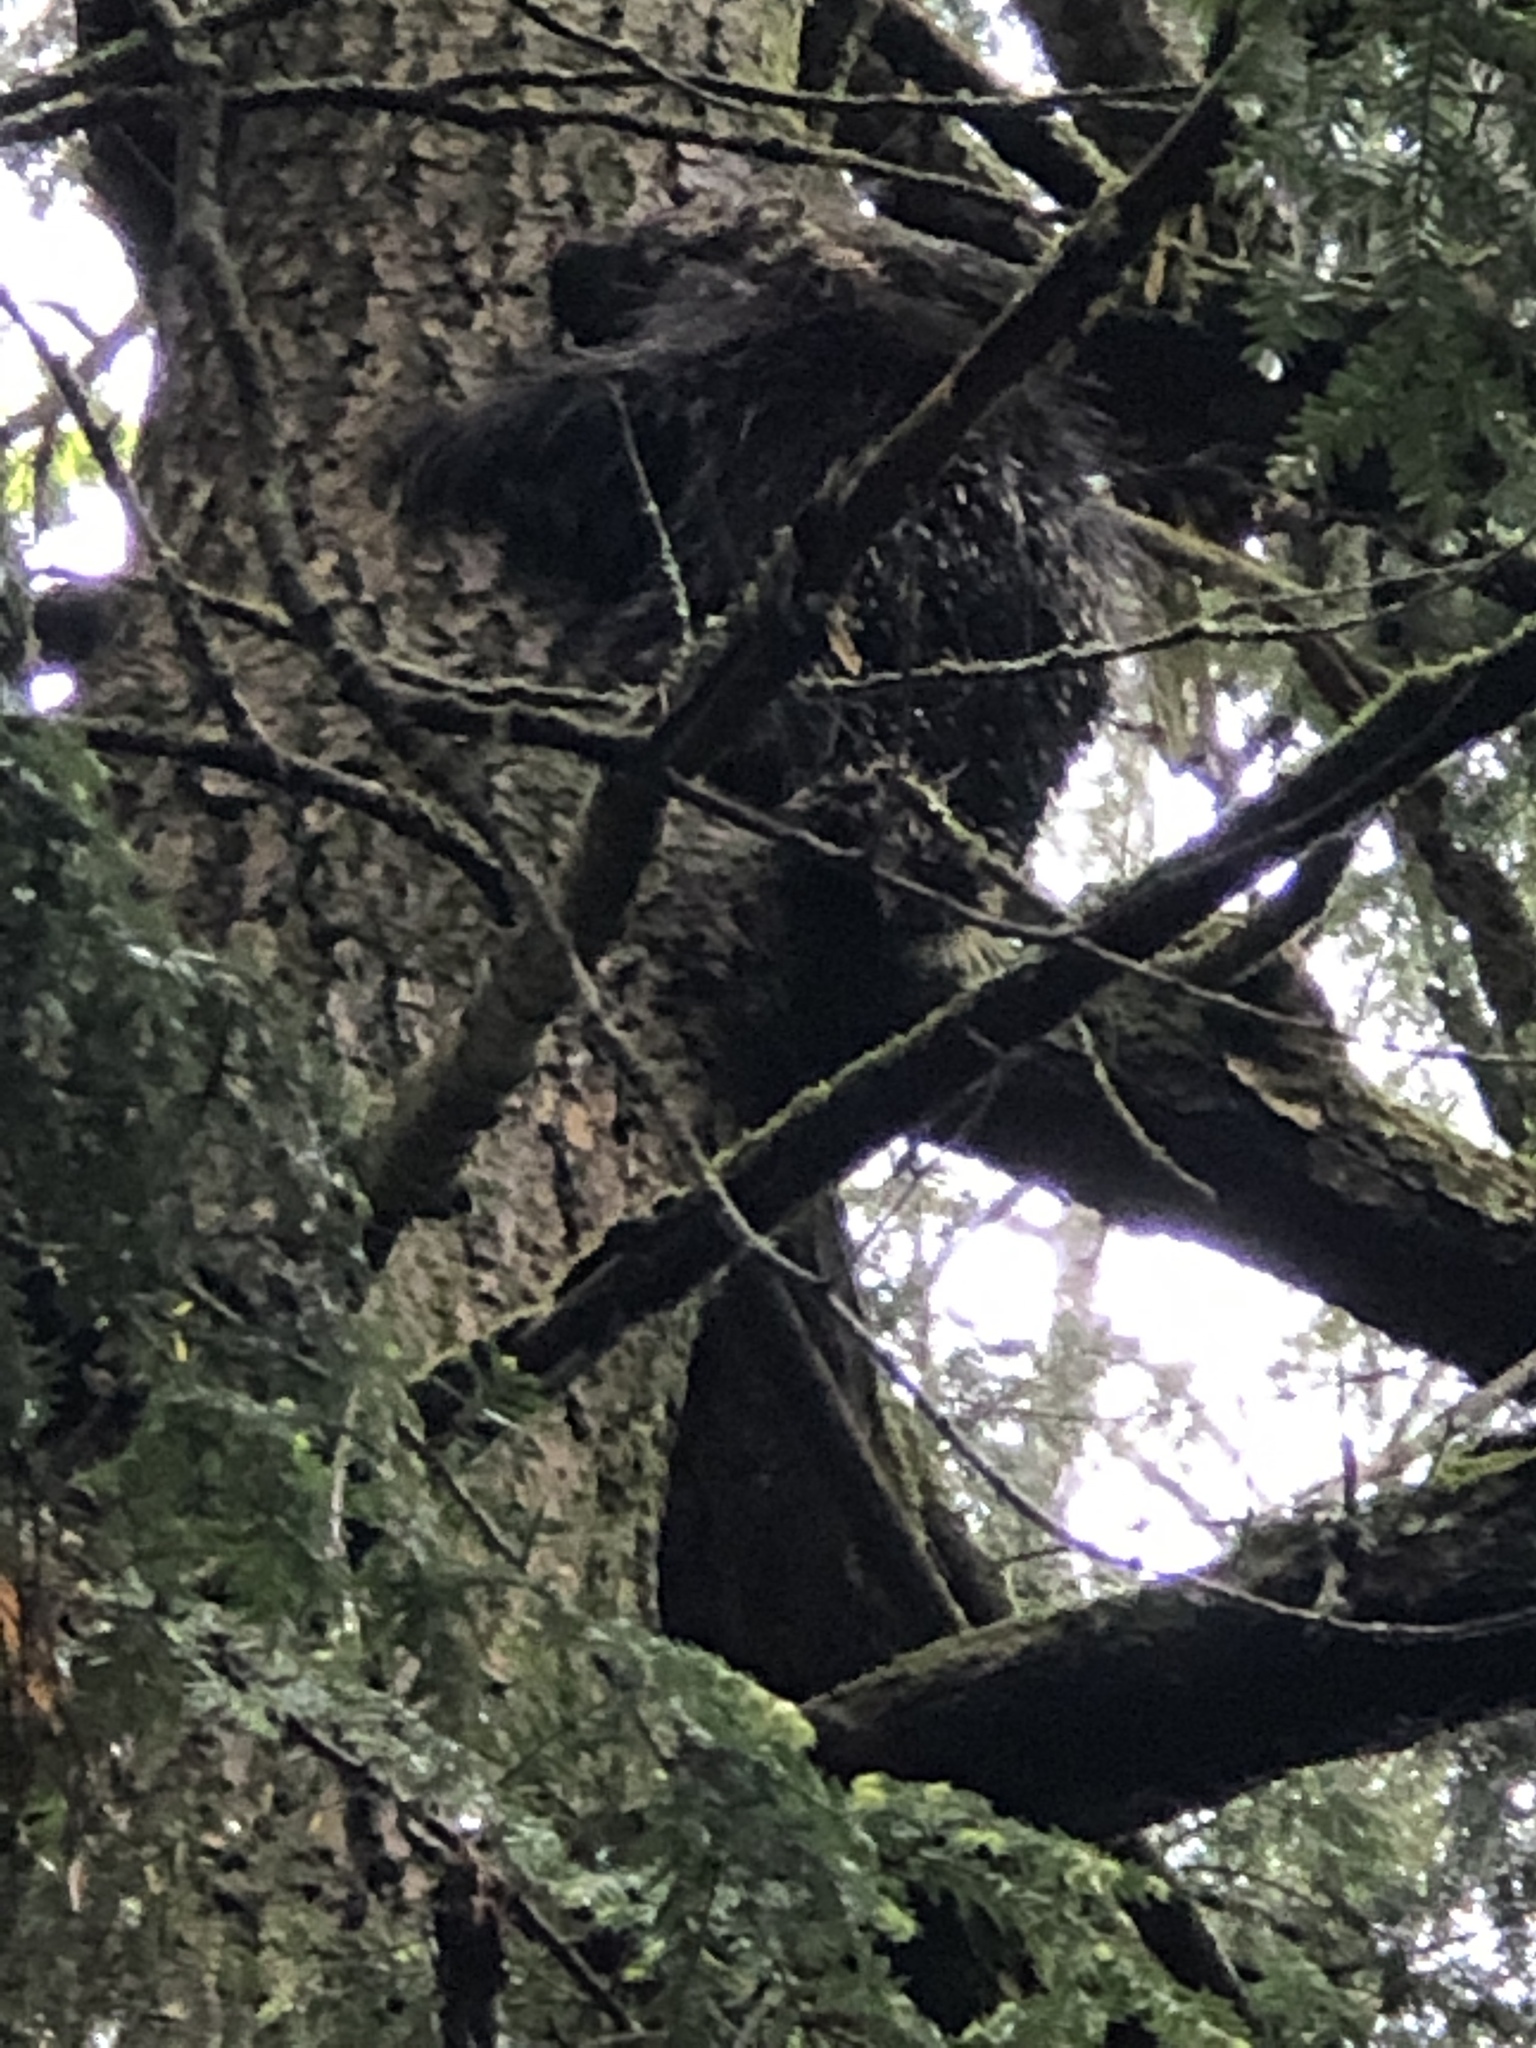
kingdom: Animalia
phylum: Chordata
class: Mammalia
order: Rodentia
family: Erethizontidae
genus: Erethizon
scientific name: Erethizon dorsatus
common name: North american porcupine
